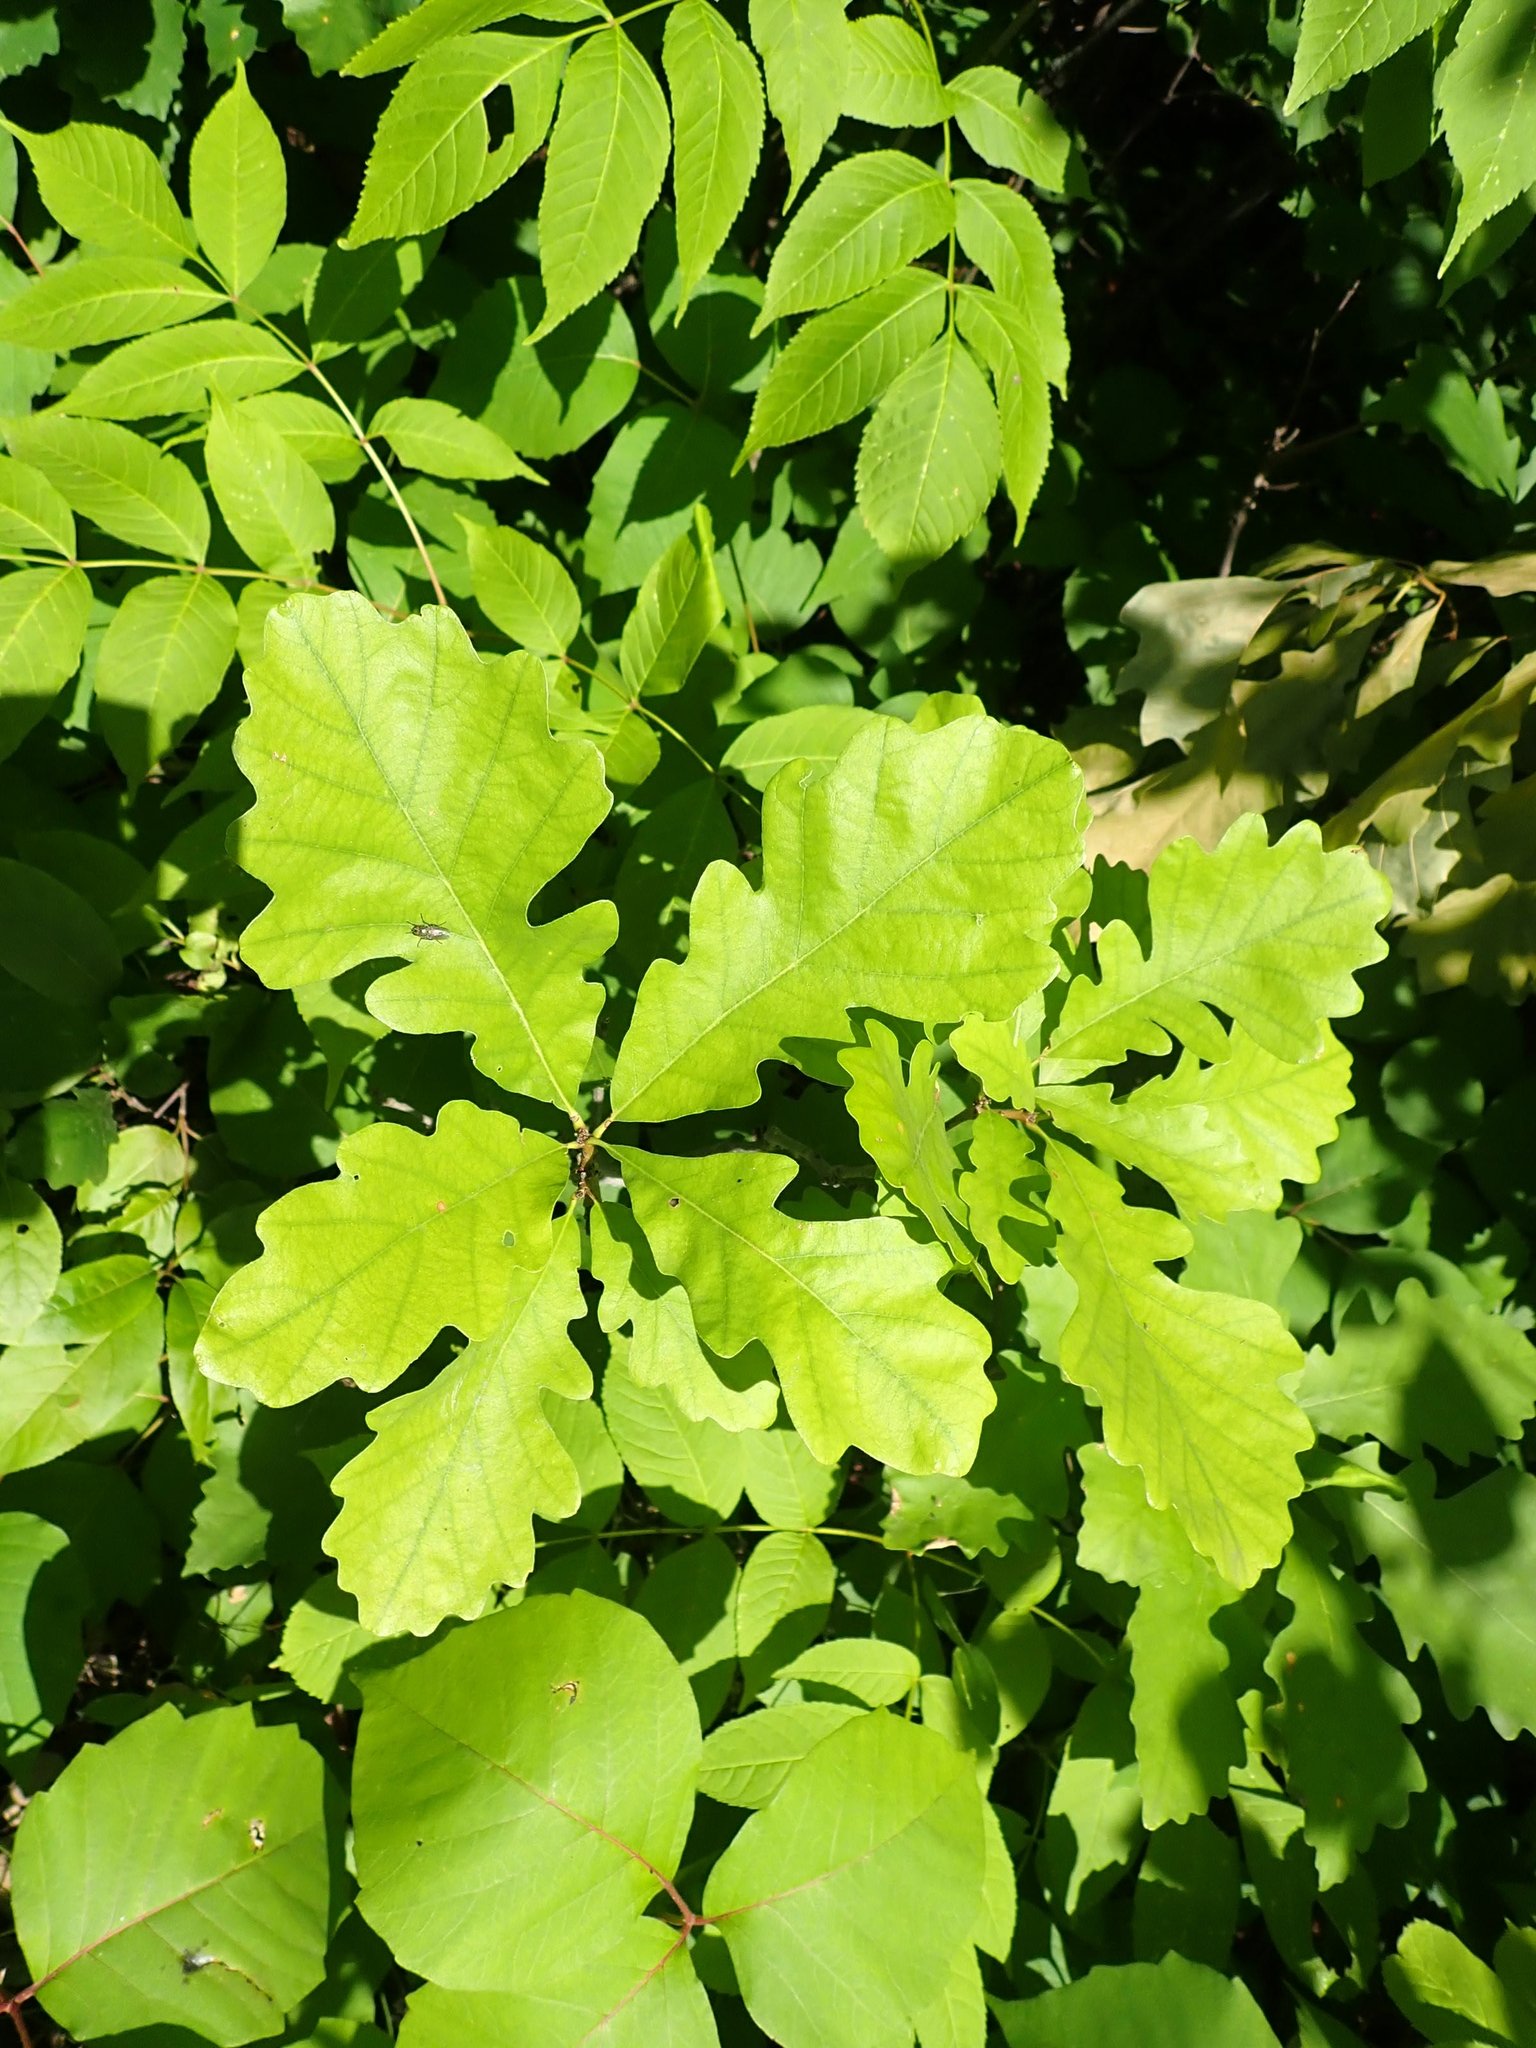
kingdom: Plantae
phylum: Tracheophyta
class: Magnoliopsida
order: Fagales
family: Fagaceae
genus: Quercus
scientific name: Quercus macrocarpa
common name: Bur oak
